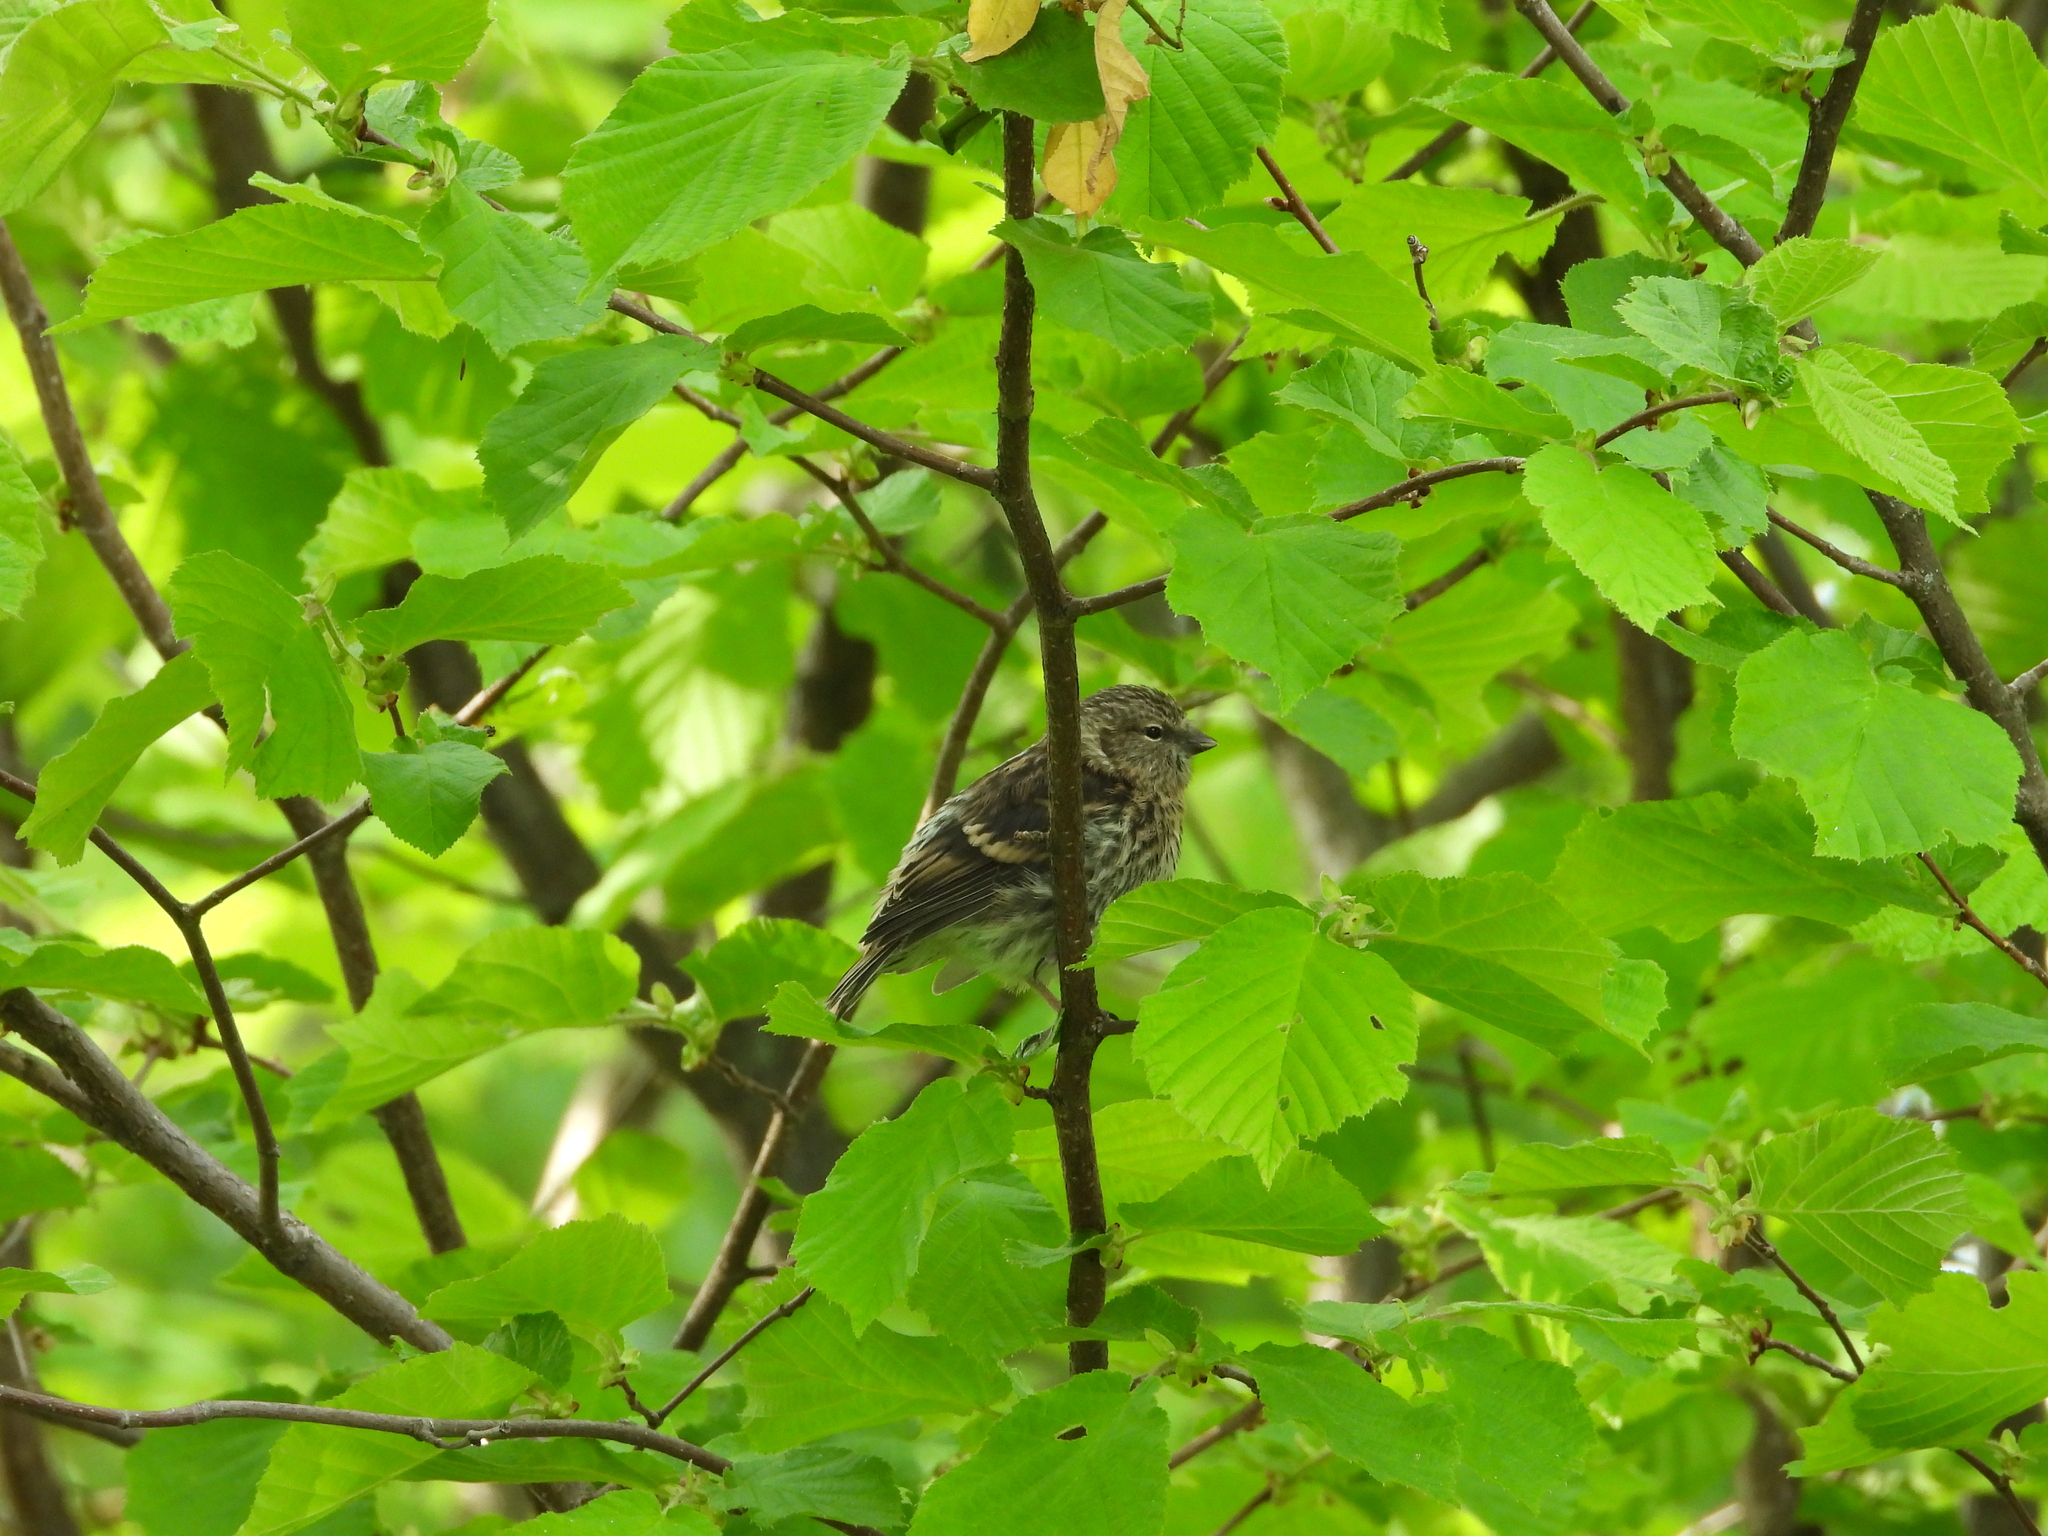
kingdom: Animalia
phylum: Chordata
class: Aves
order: Passeriformes
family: Fringillidae
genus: Spinus
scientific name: Spinus spinus
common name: Eurasian siskin
